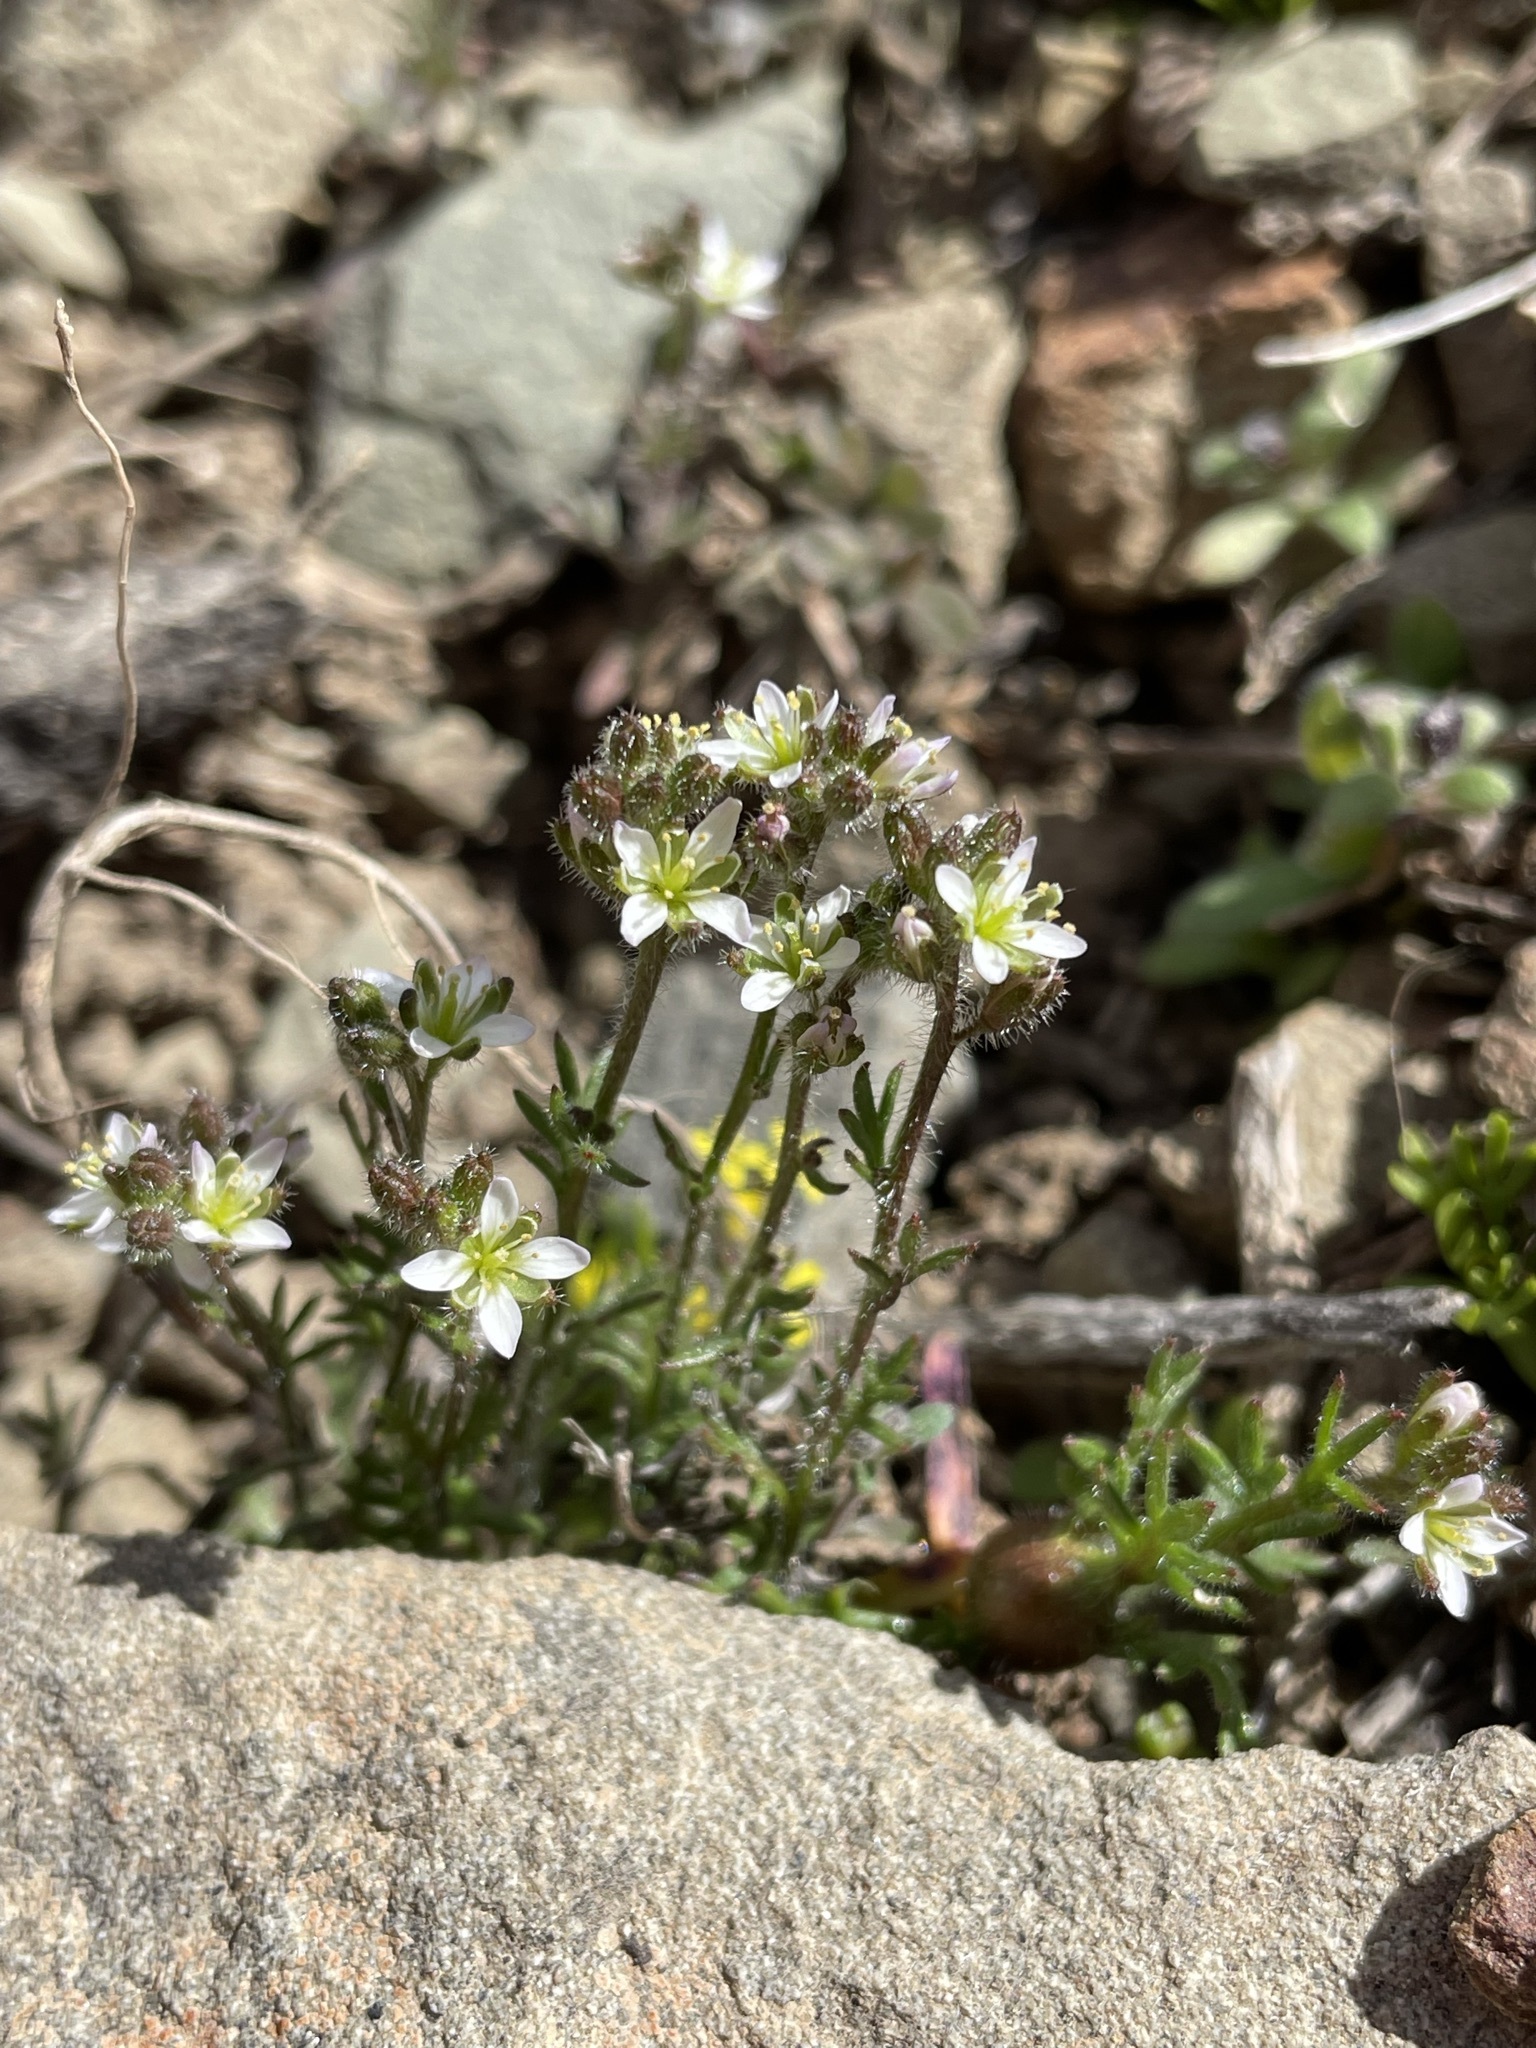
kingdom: Plantae
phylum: Tracheophyta
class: Magnoliopsida
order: Brassicales
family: Brassicaceae
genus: Heliophila
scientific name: Heliophila pubescens
